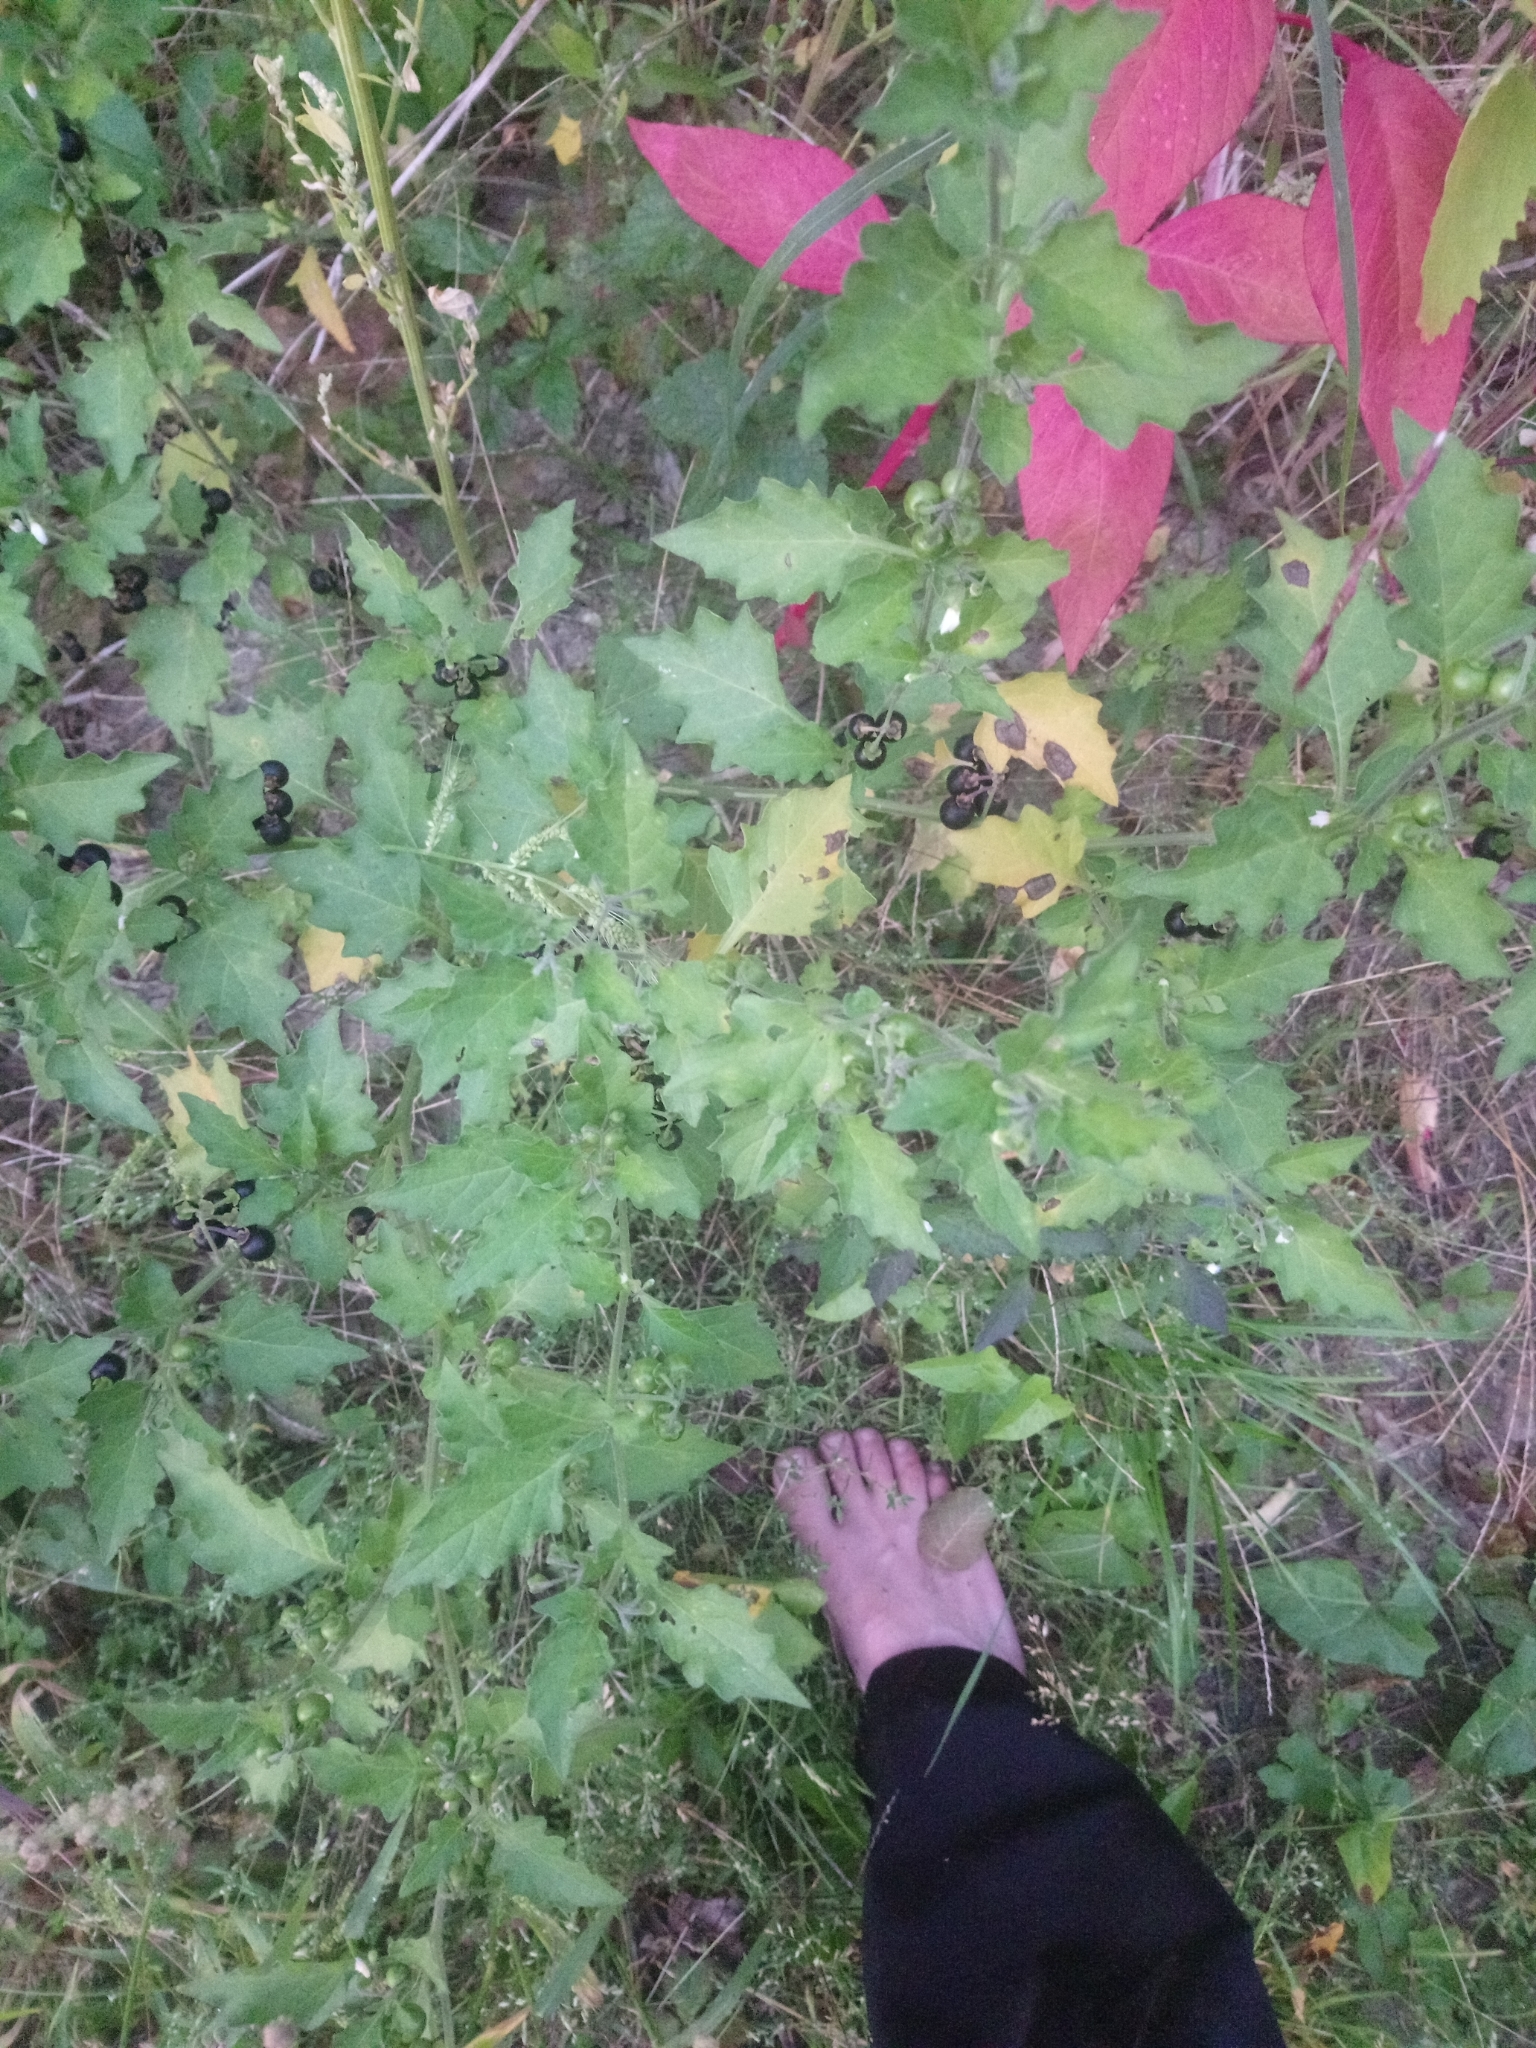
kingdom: Plantae
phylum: Tracheophyta
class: Magnoliopsida
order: Solanales
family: Solanaceae
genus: Solanum
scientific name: Solanum nigrum
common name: Black nightshade
